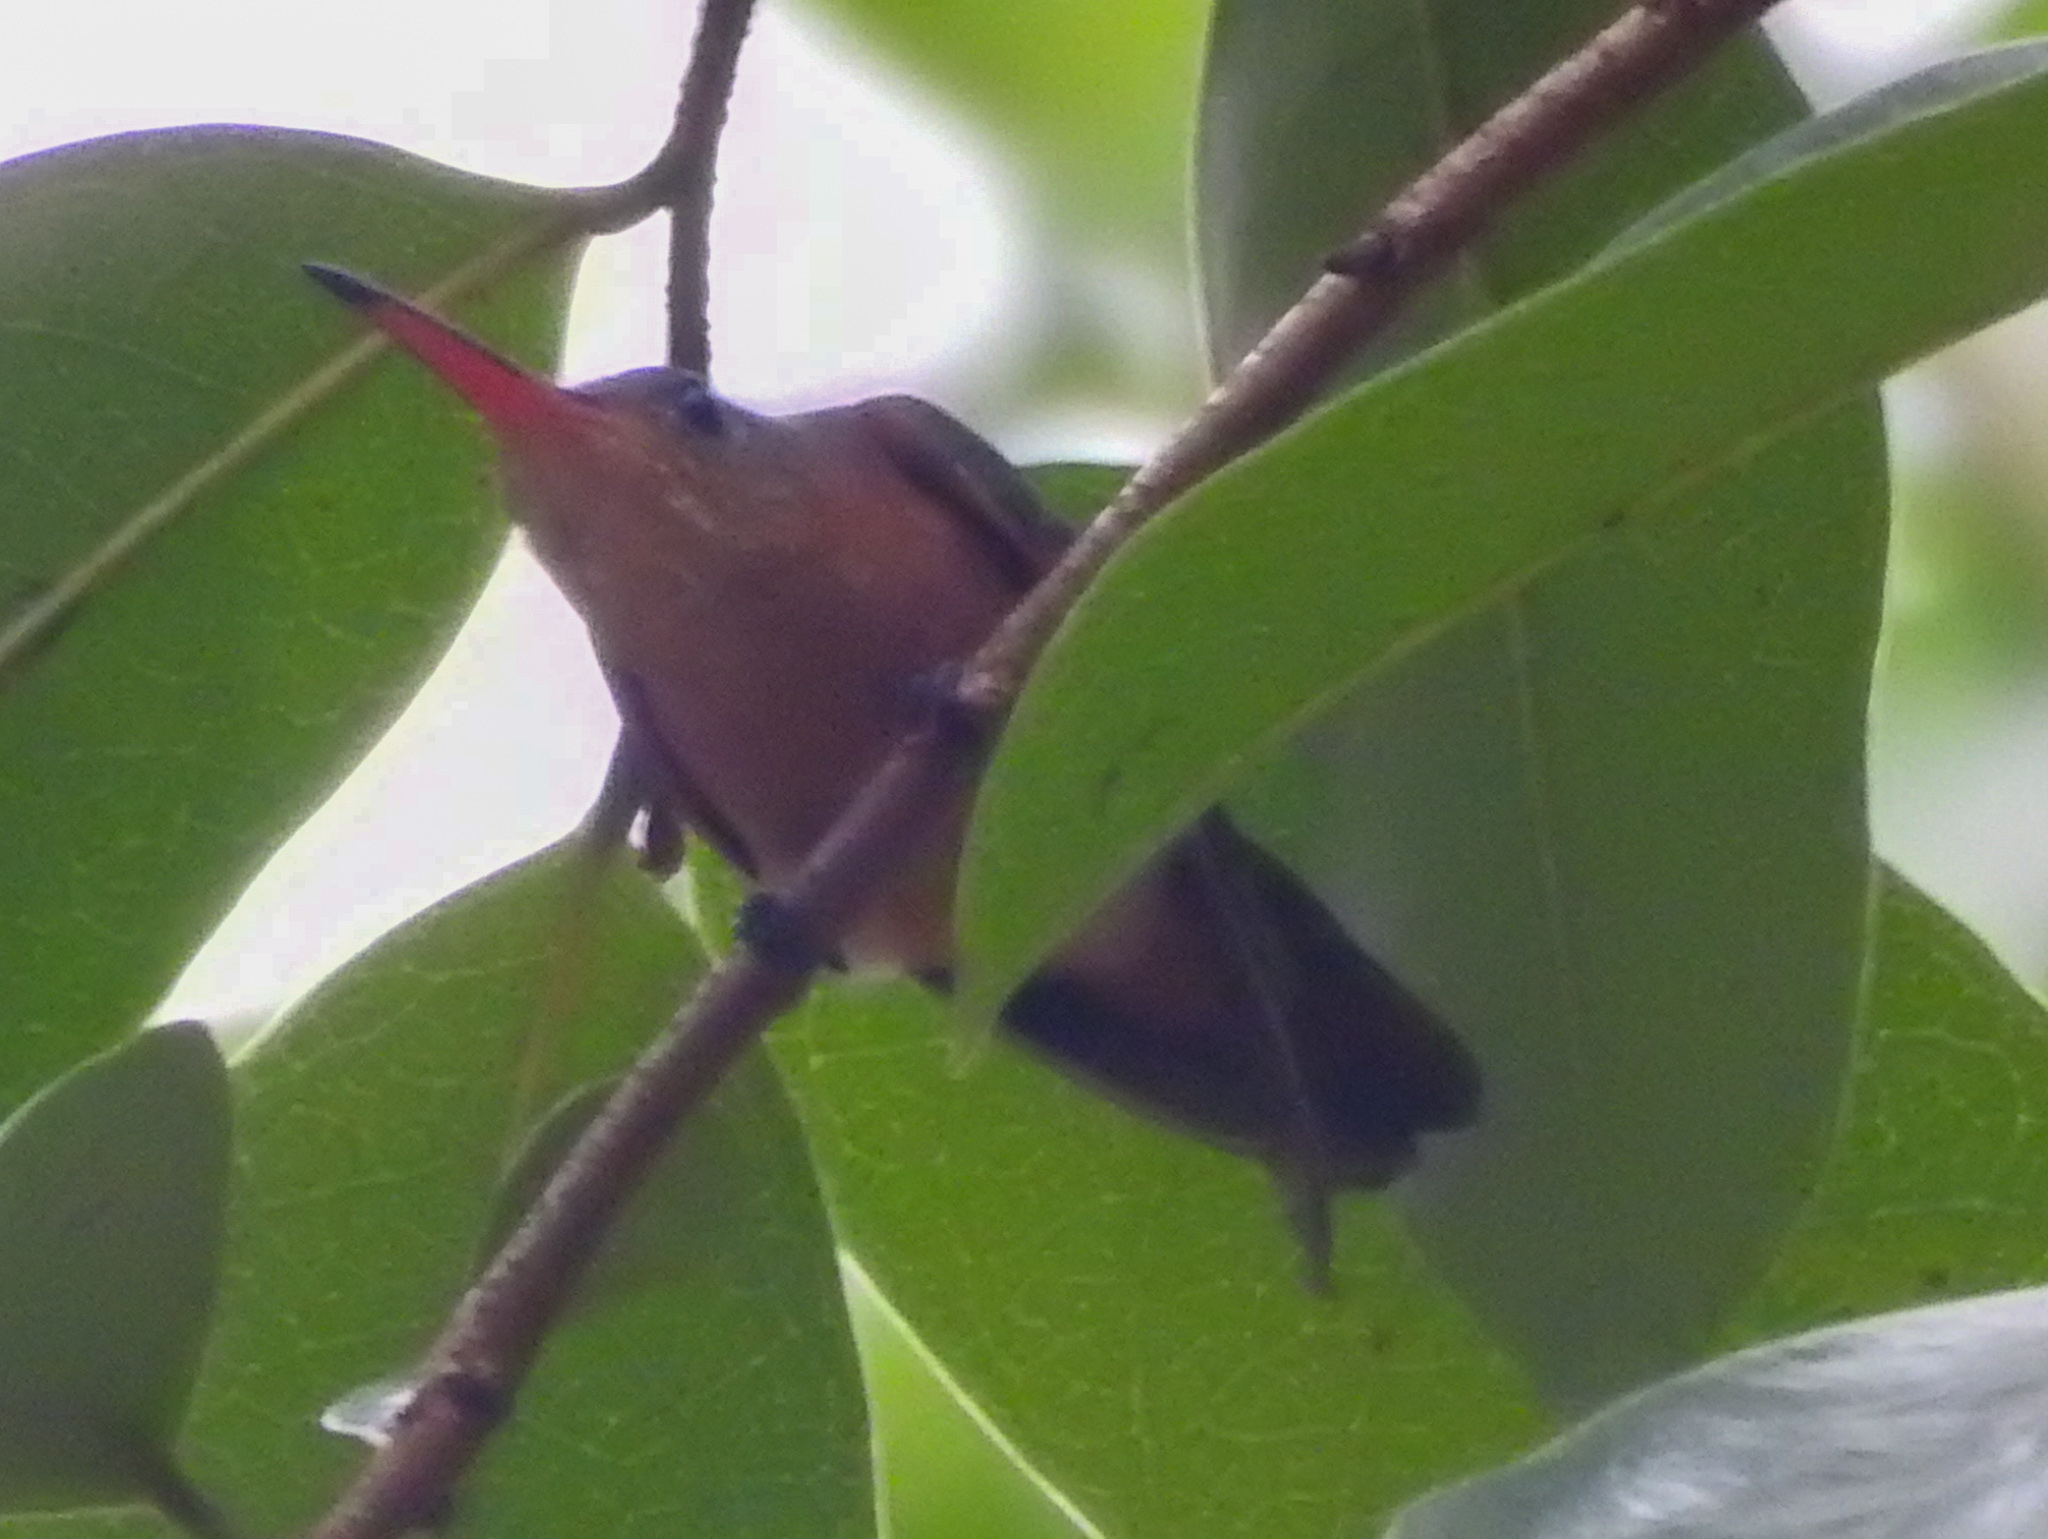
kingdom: Animalia
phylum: Chordata
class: Aves
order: Apodiformes
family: Trochilidae
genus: Amazilia
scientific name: Amazilia rutila
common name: Cinnamon hummingbird
